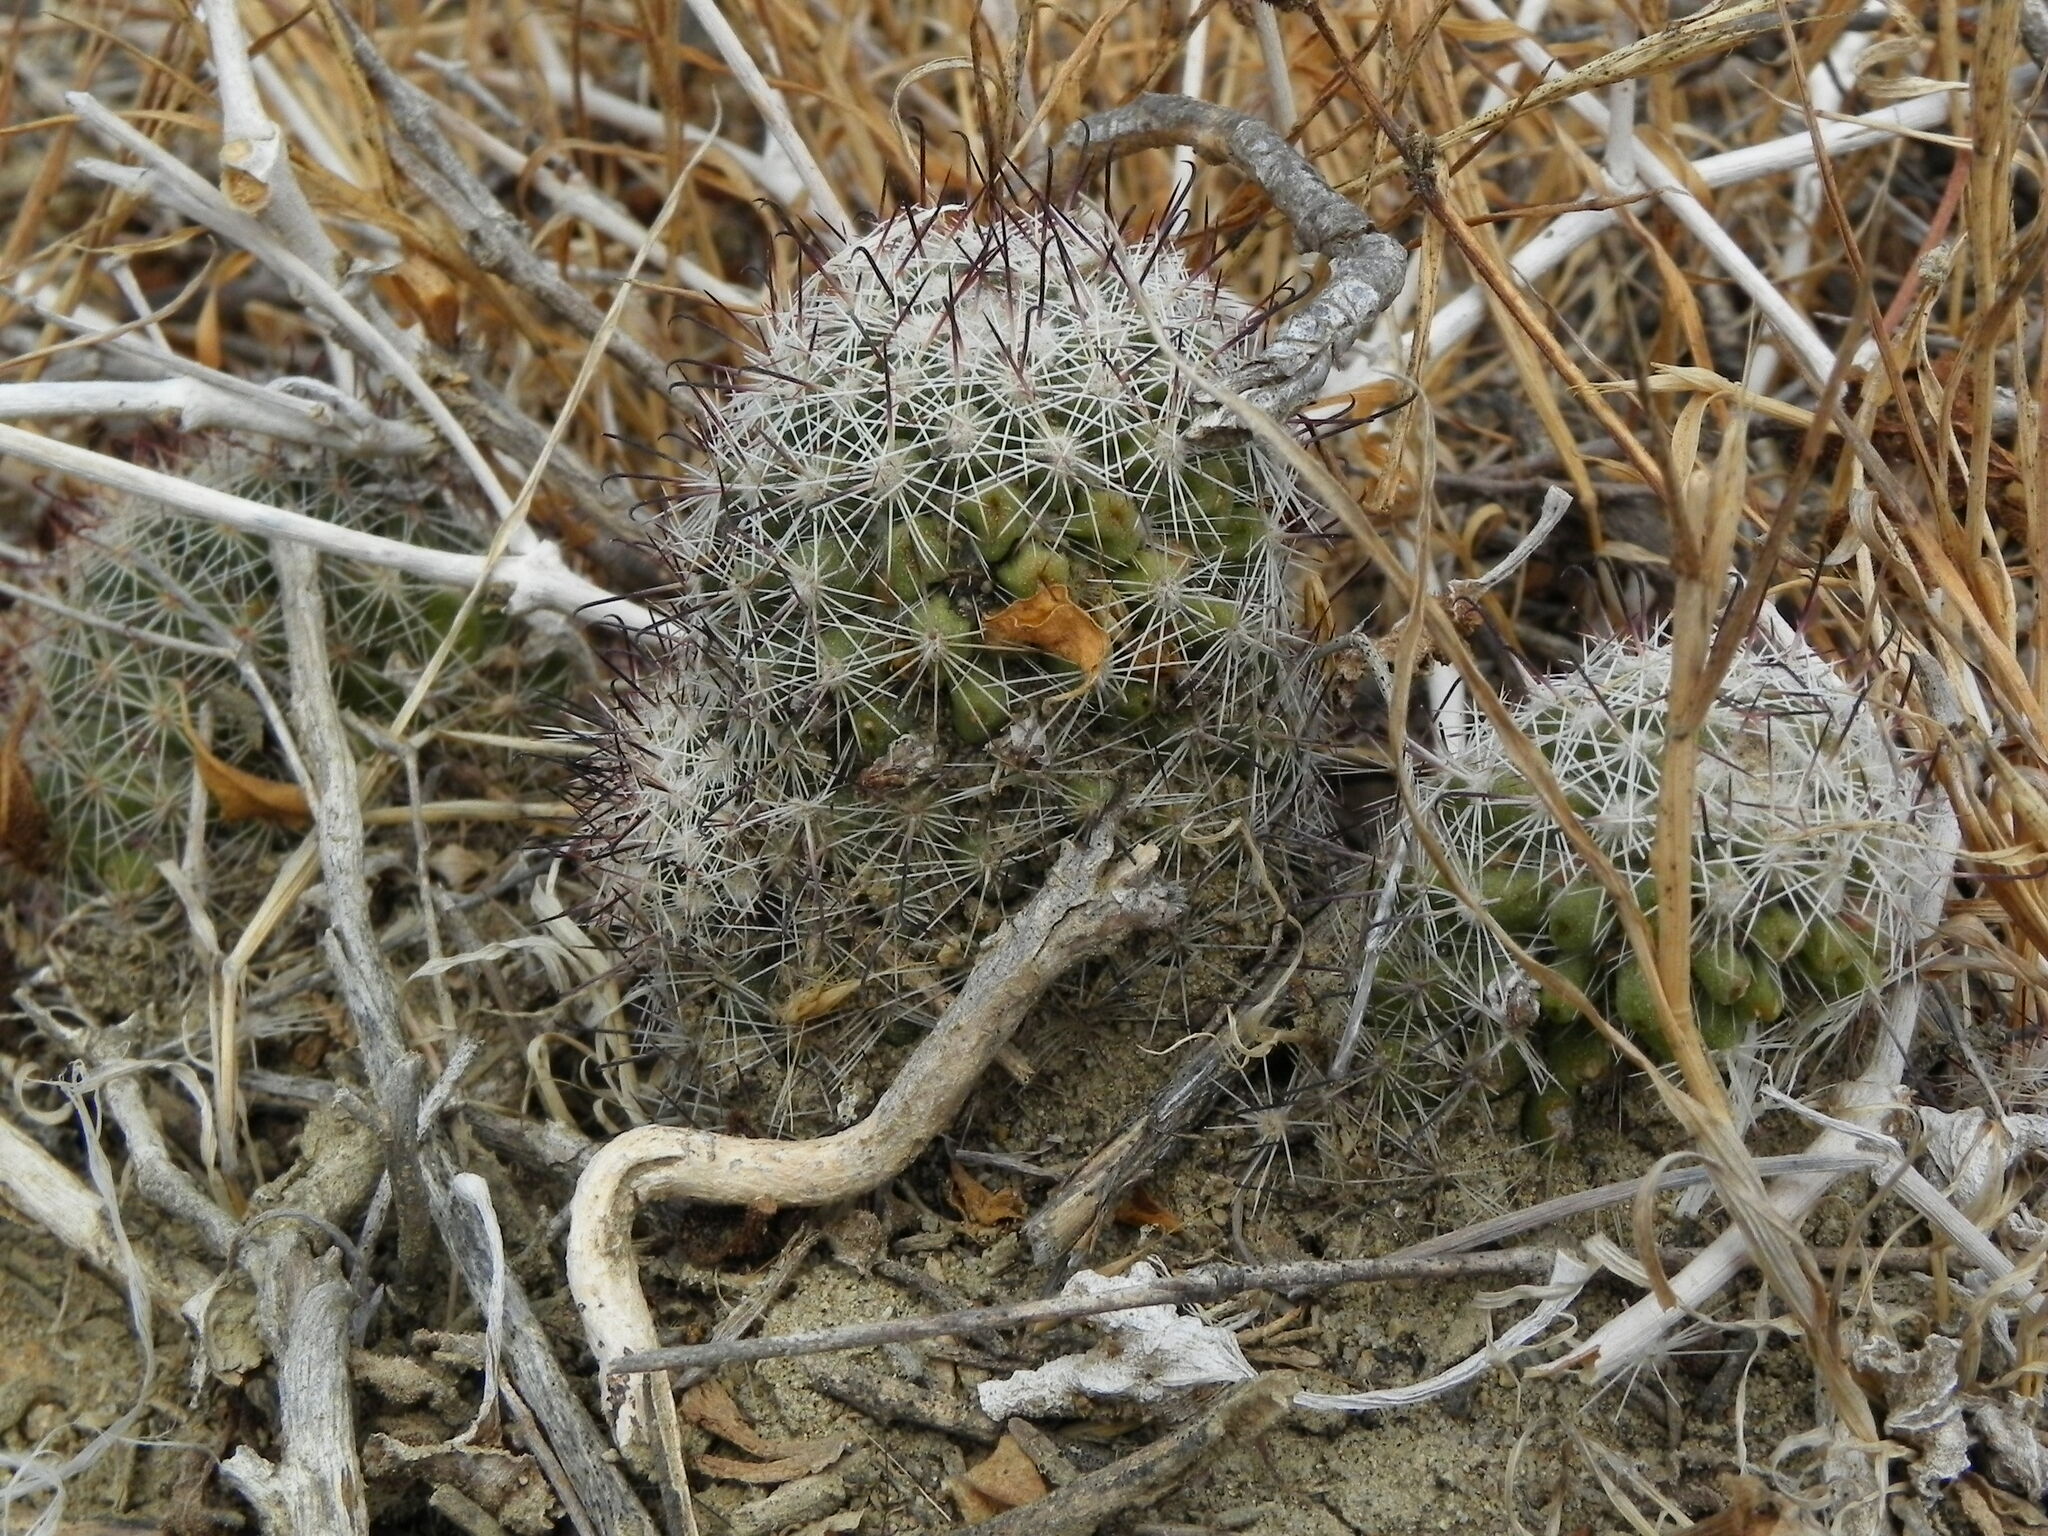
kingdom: Plantae
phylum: Tracheophyta
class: Magnoliopsida
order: Caryophyllales
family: Cactaceae
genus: Cochemiea
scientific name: Cochemiea dioica
